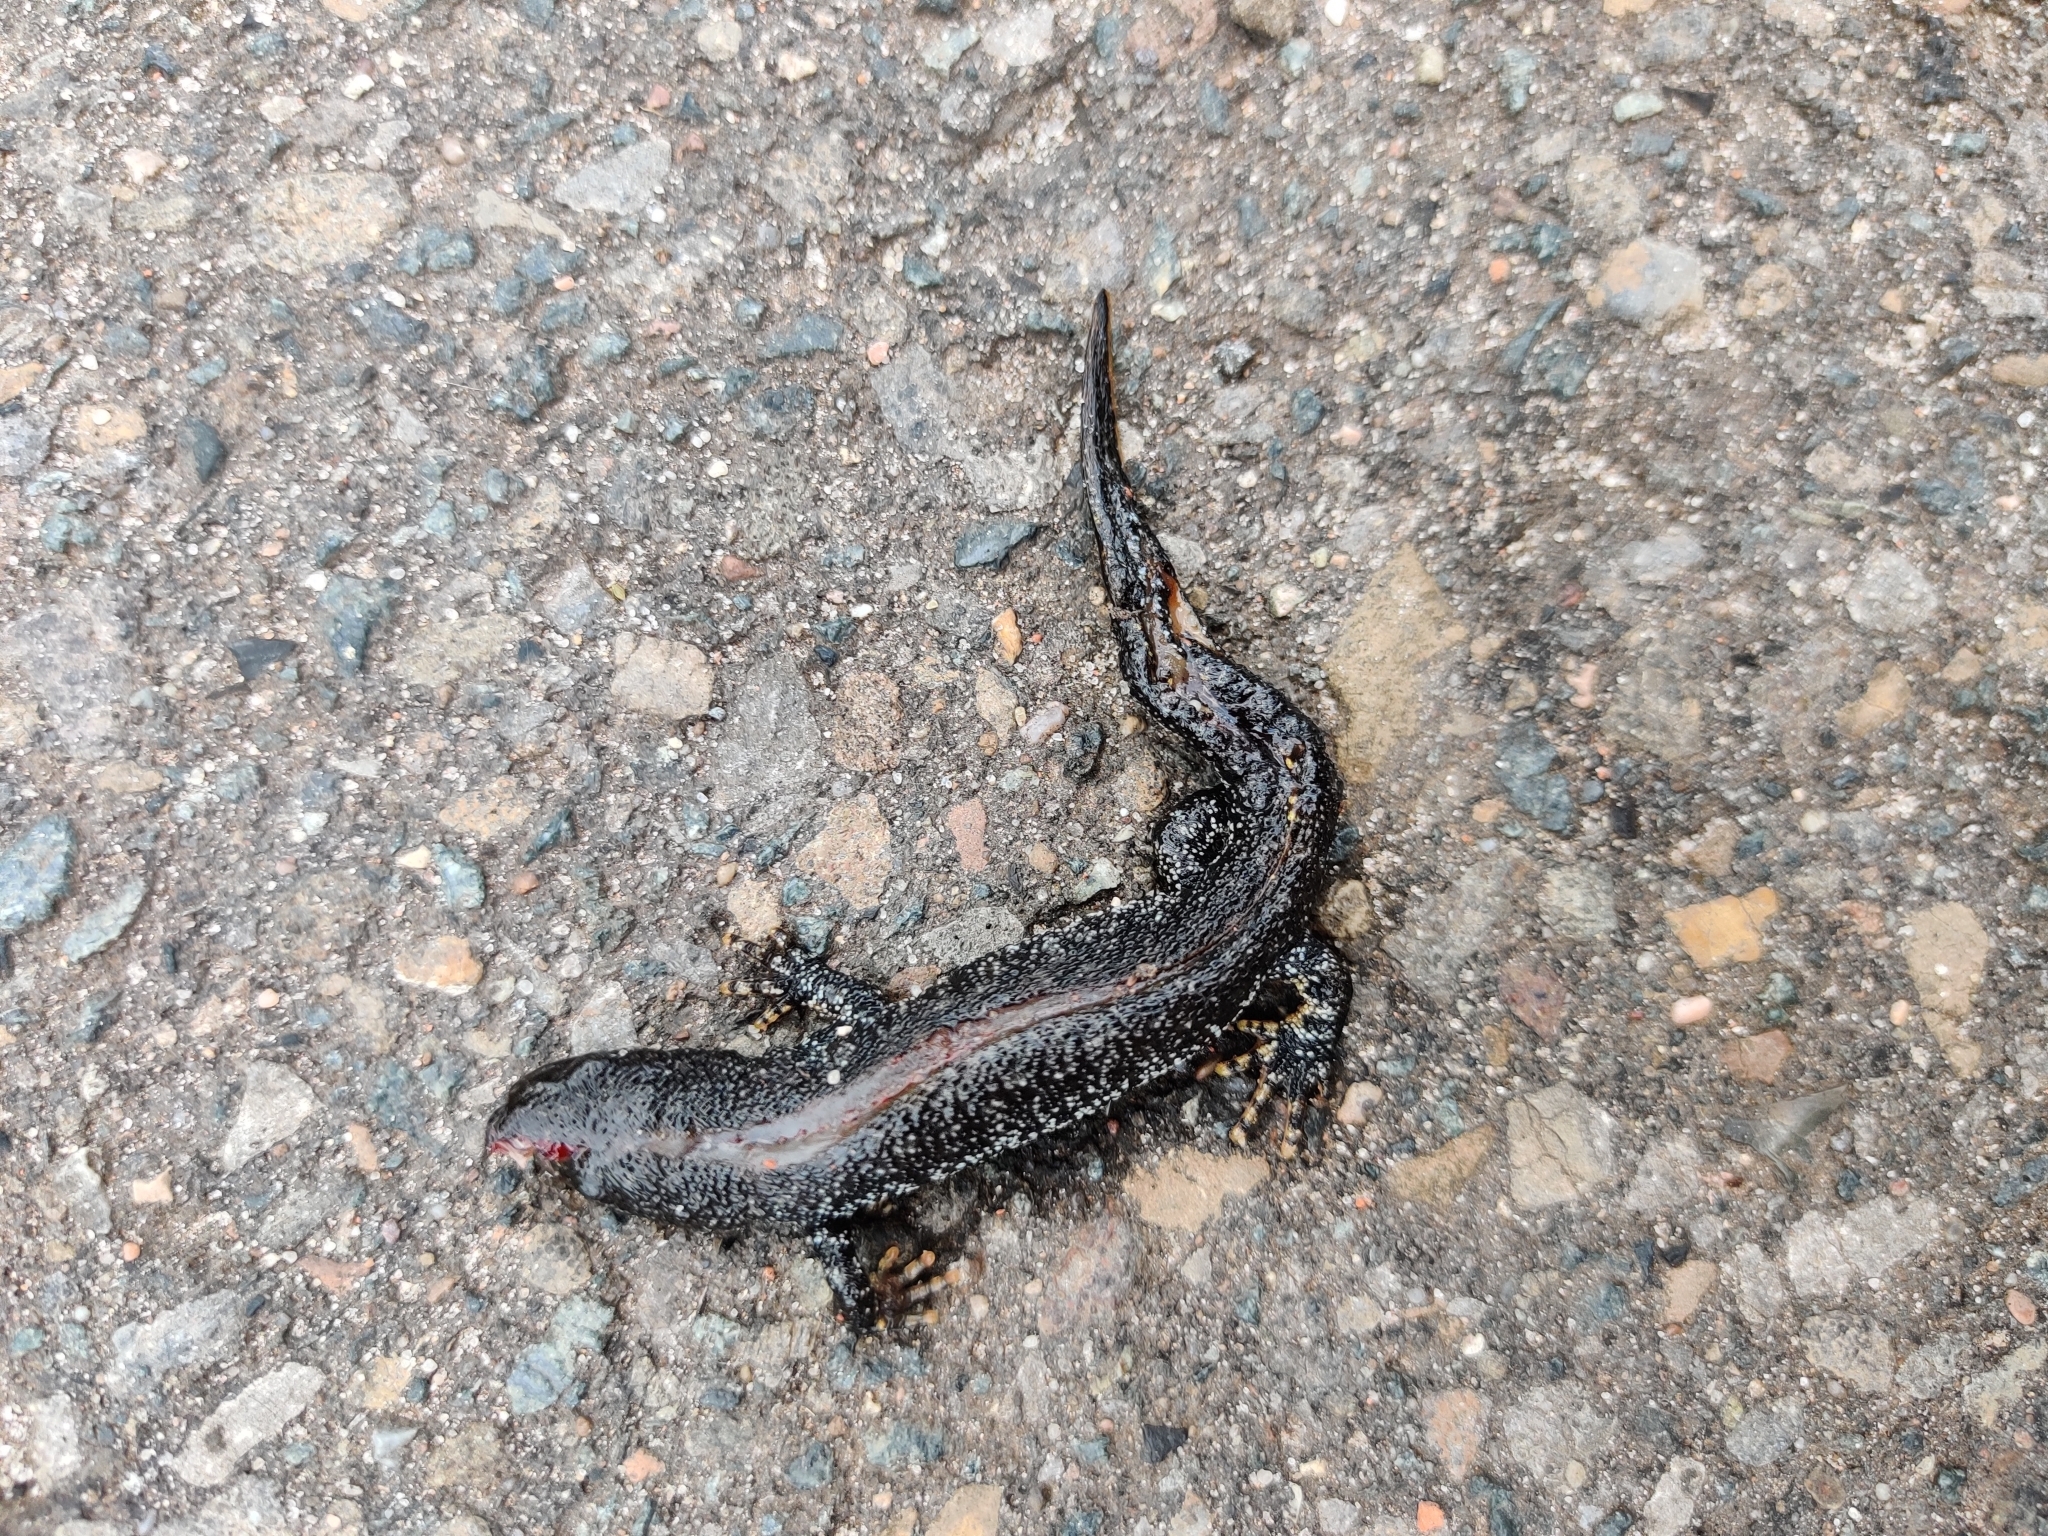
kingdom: Animalia
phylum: Chordata
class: Amphibia
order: Caudata
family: Salamandridae
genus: Triturus
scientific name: Triturus cristatus
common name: Crested newt
